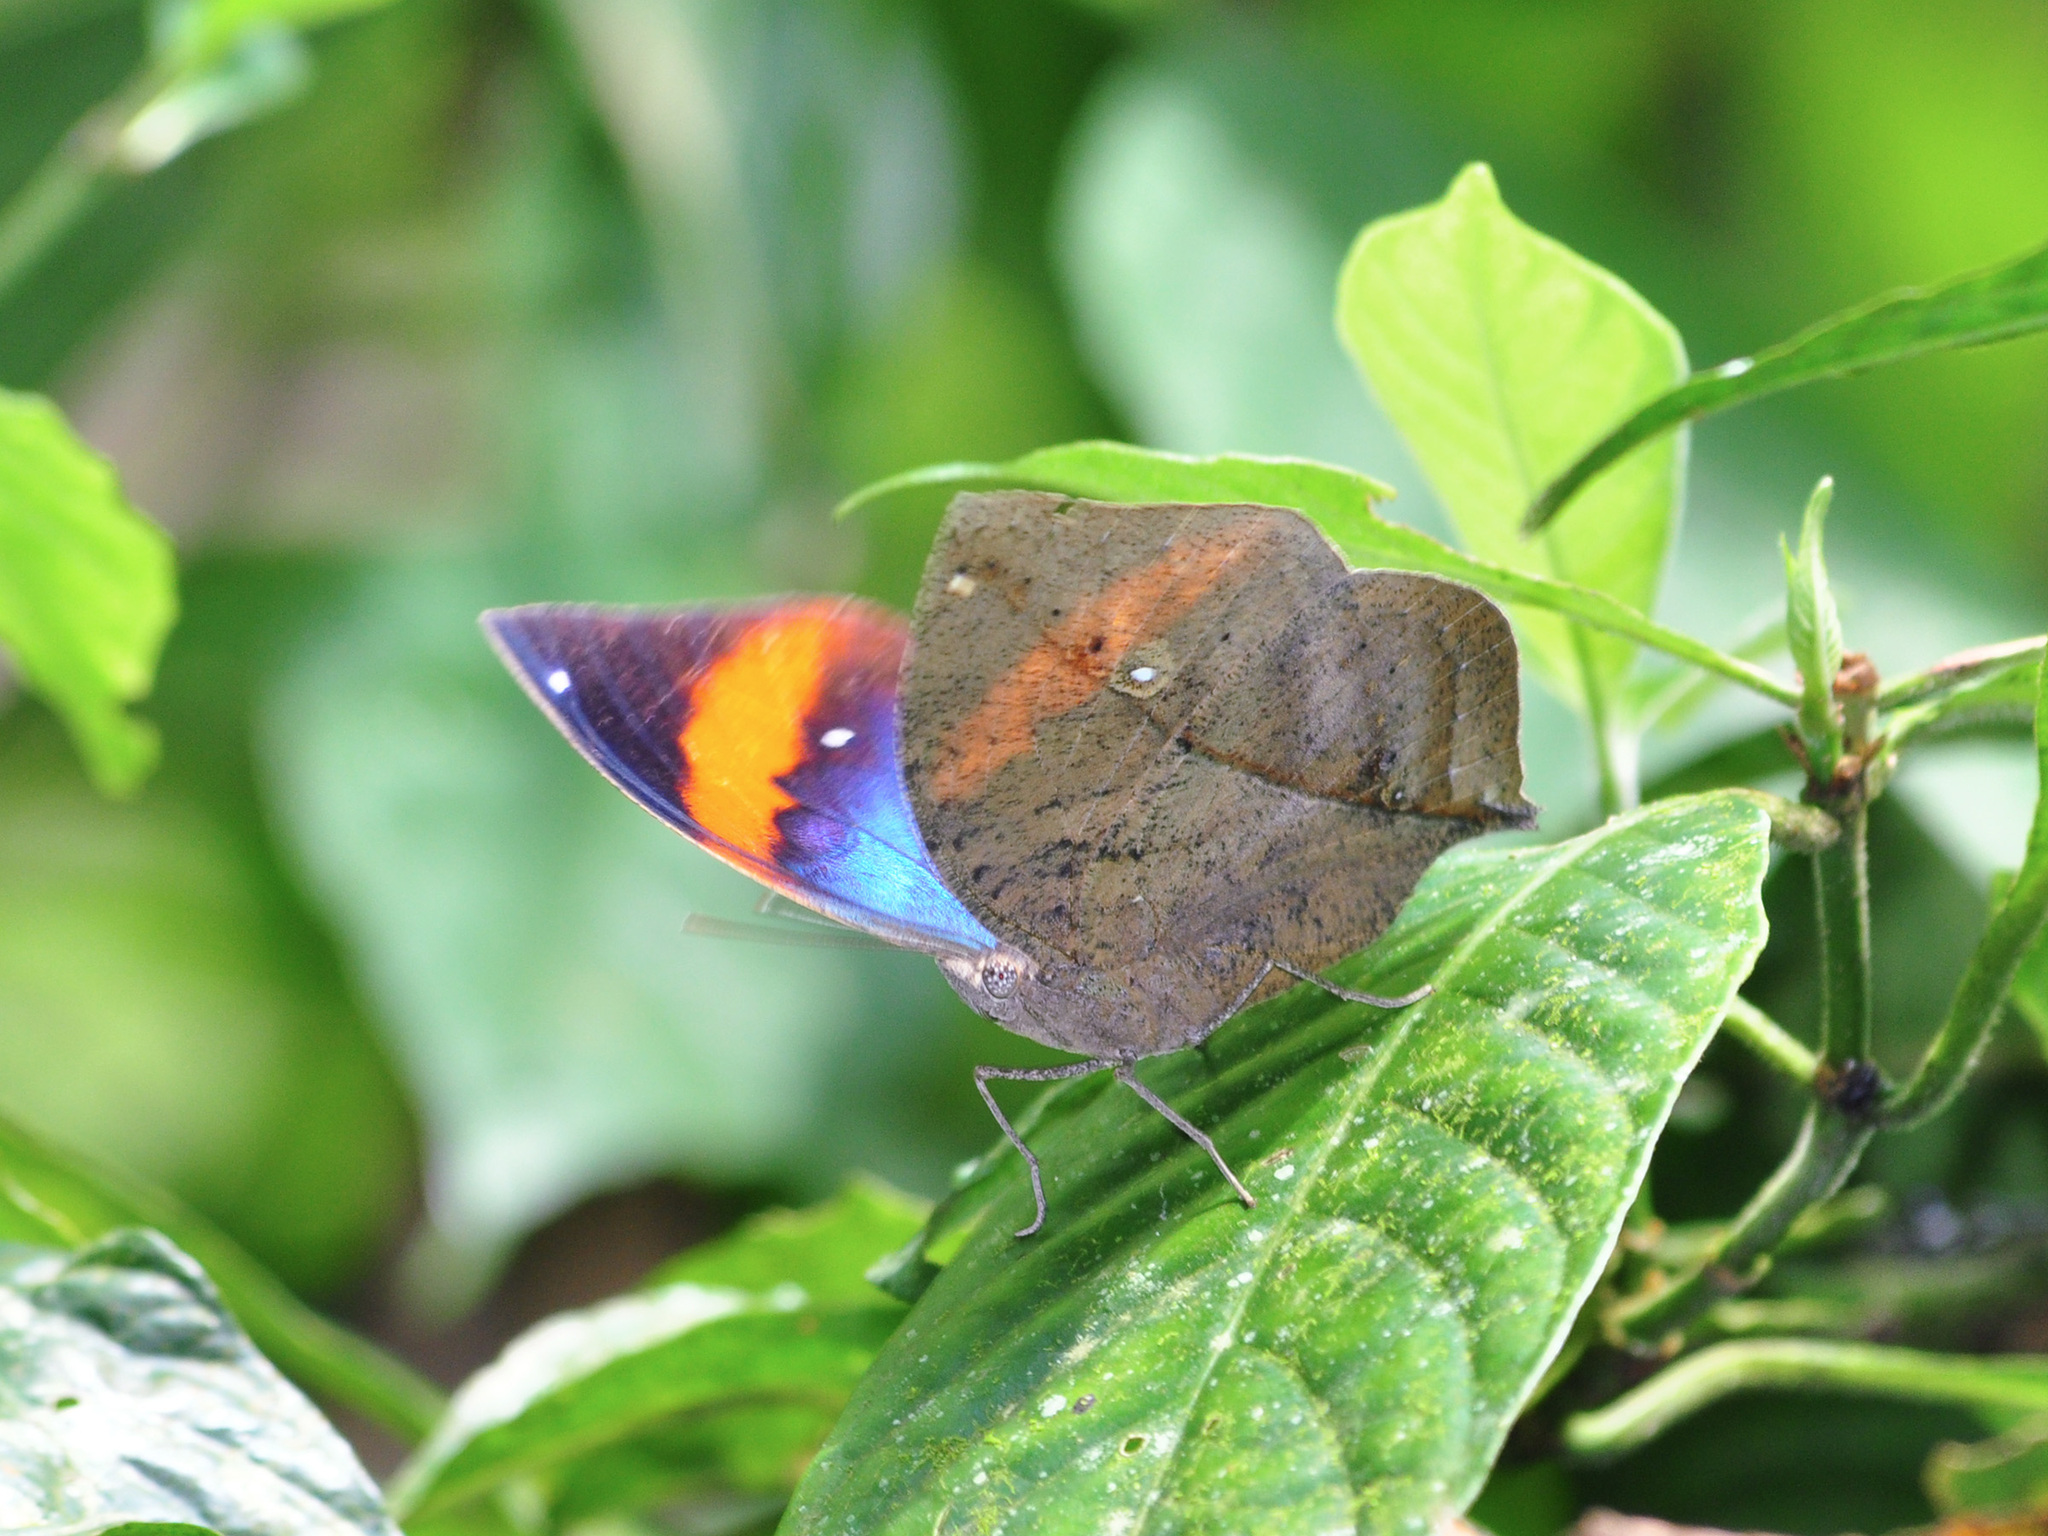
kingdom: Animalia
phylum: Arthropoda
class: Insecta
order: Lepidoptera
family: Nymphalidae
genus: Kallima
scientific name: Kallima paralekta
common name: Indian leafwing
